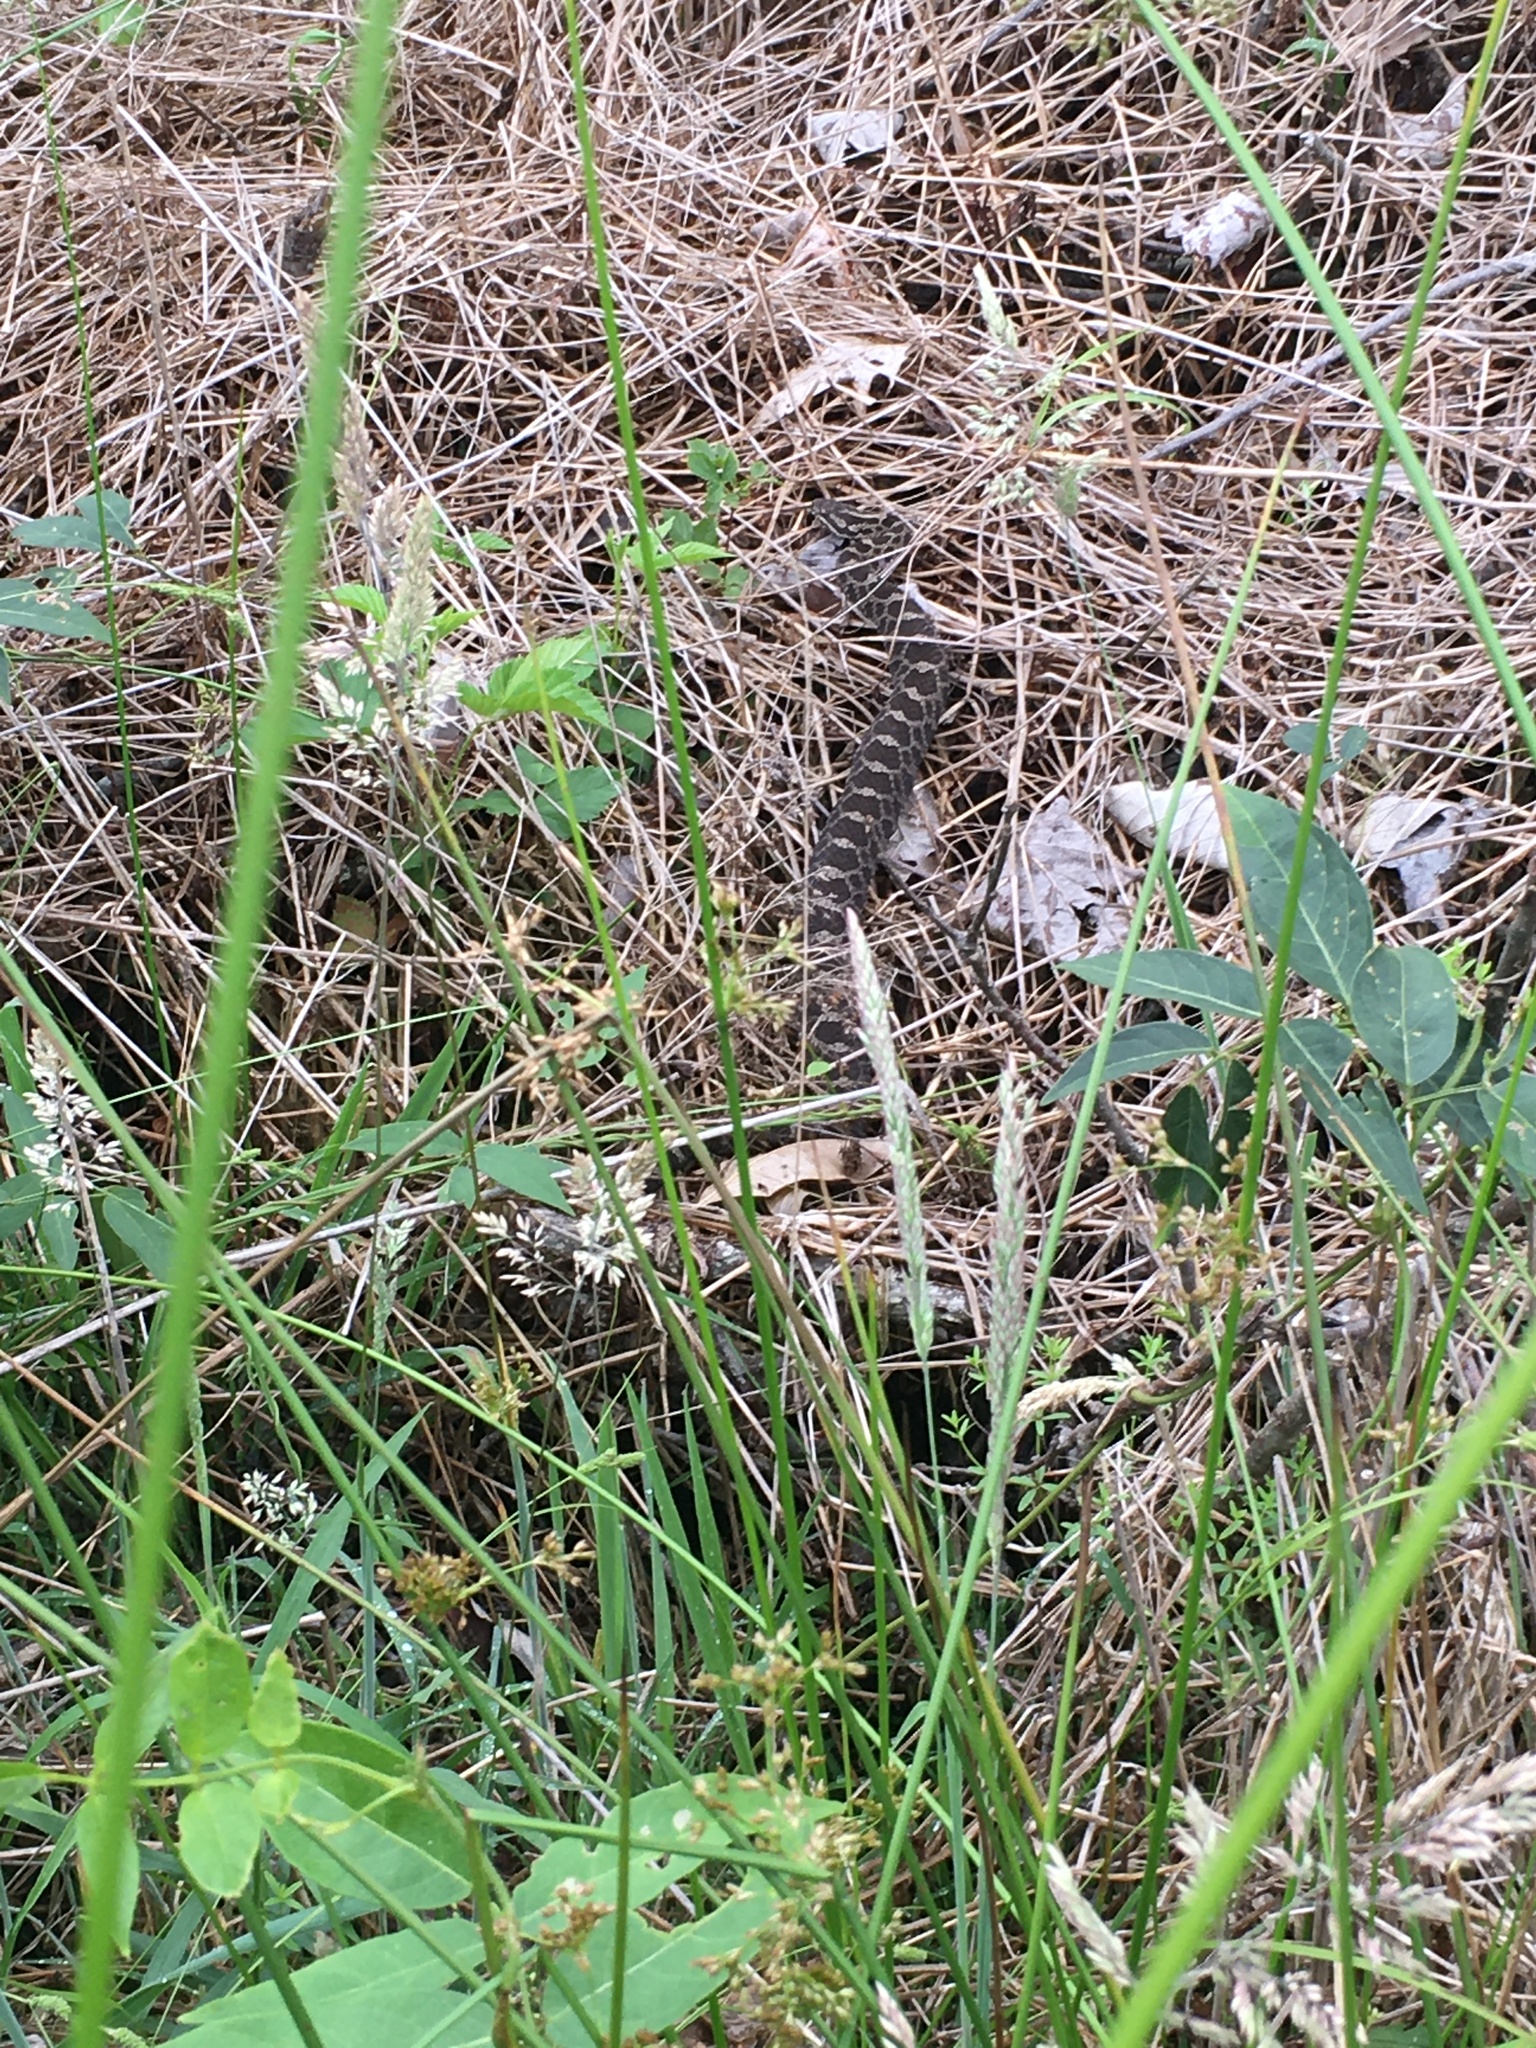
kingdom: Animalia
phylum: Chordata
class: Squamata
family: Viperidae
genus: Sistrurus
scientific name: Sistrurus catenatus
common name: Massasauga
